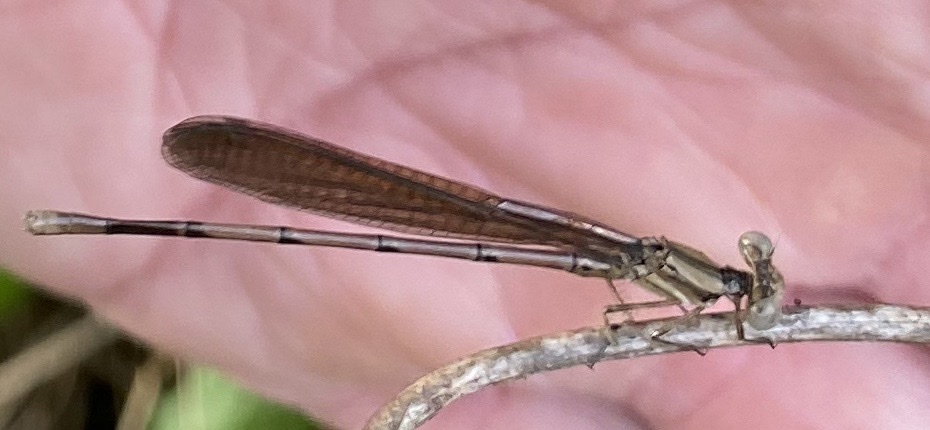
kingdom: Animalia
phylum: Arthropoda
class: Insecta
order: Odonata
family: Coenagrionidae
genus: Argia
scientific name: Argia fumipennis
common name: Variable dancer
